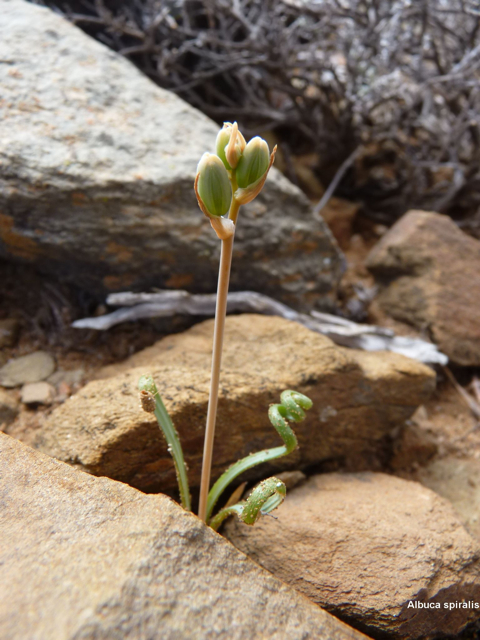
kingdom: Plantae
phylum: Tracheophyta
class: Liliopsida
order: Asparagales
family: Asparagaceae
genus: Albuca
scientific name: Albuca spiralis
